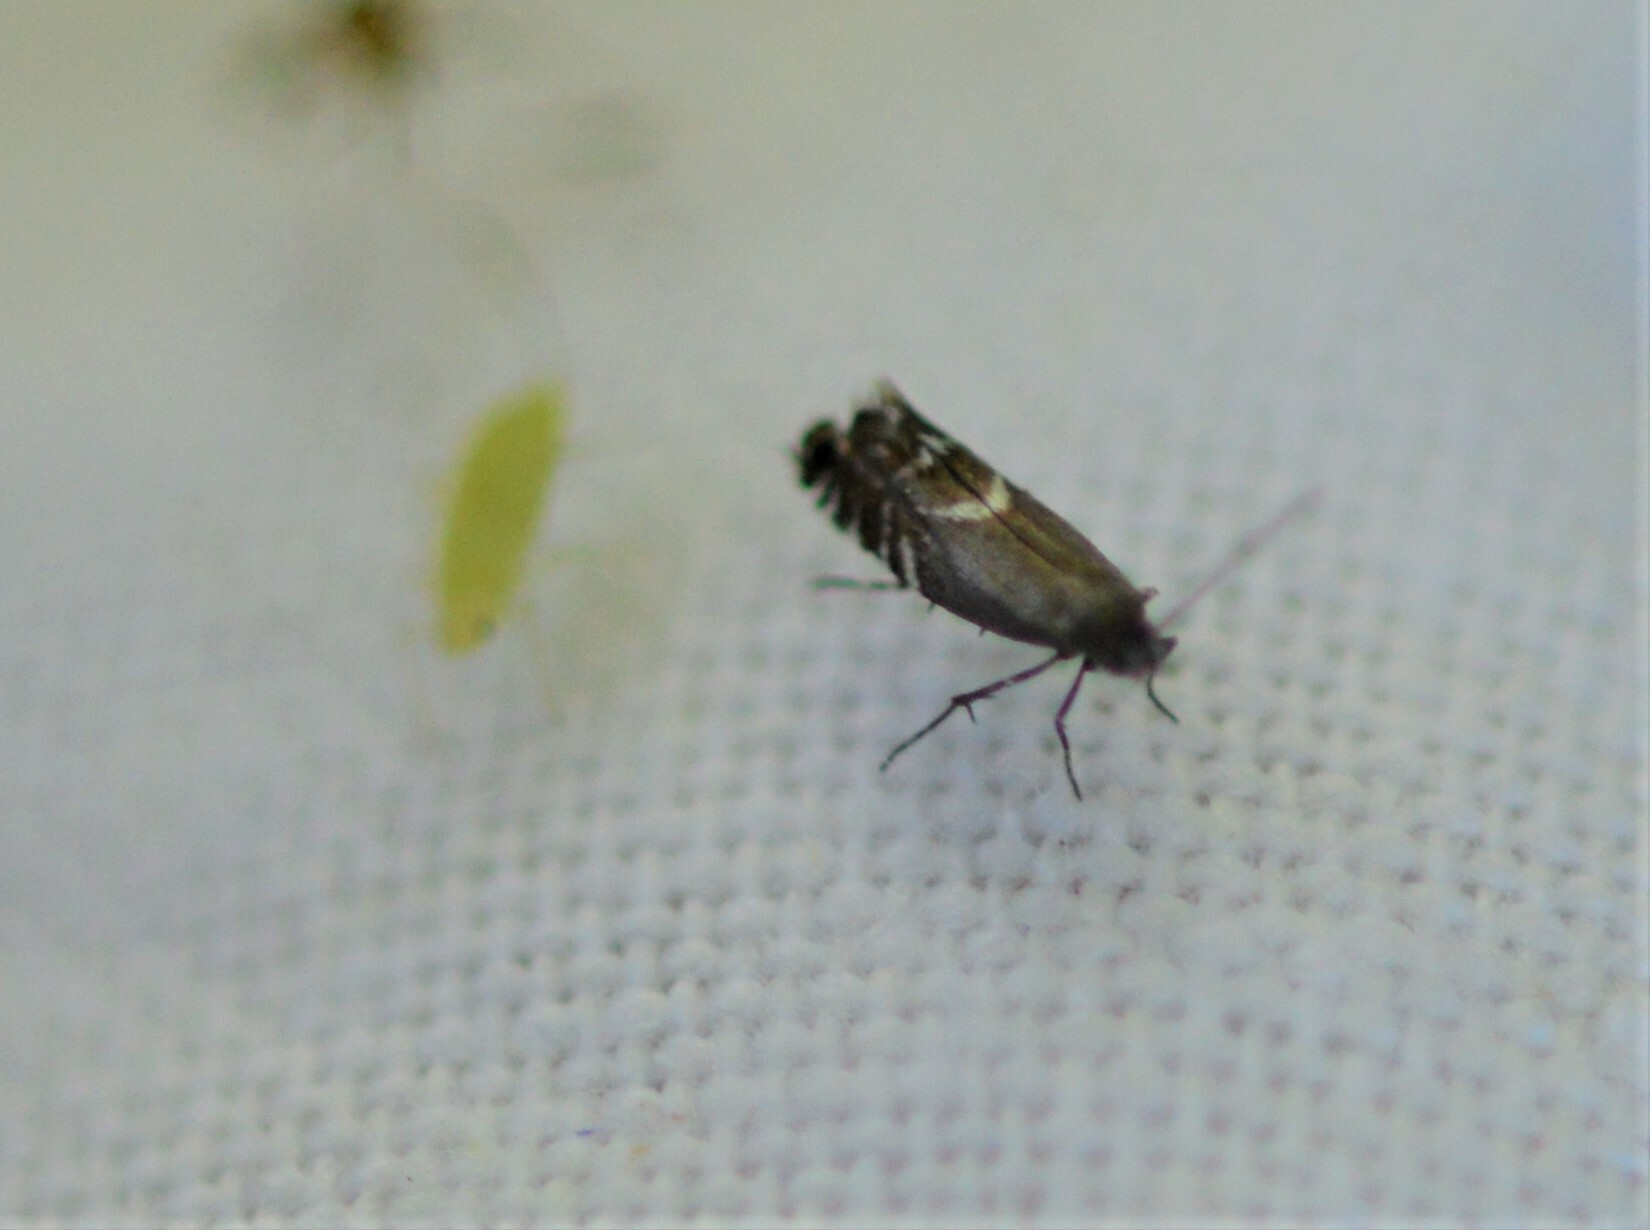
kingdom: Animalia
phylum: Arthropoda
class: Insecta
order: Lepidoptera
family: Glyphipterigidae
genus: Glyphipterix
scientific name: Glyphipterix simpliciella
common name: Cocksfoot moth
